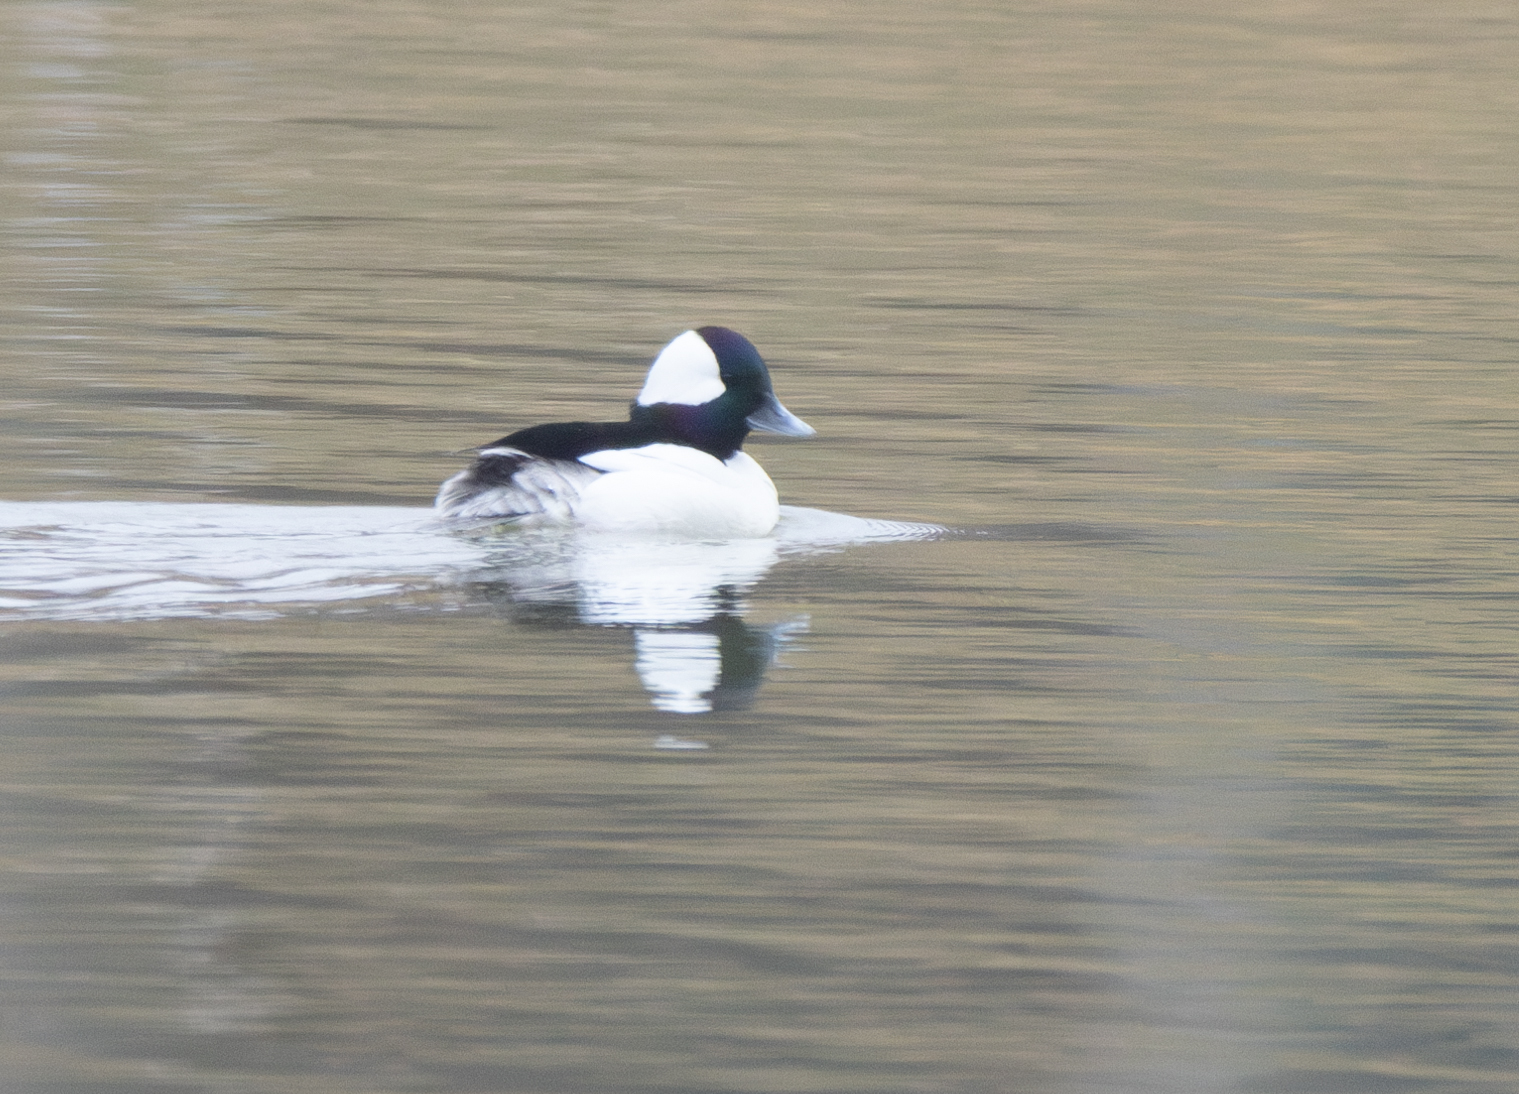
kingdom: Animalia
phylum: Chordata
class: Aves
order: Anseriformes
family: Anatidae
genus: Bucephala
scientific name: Bucephala albeola
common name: Bufflehead
